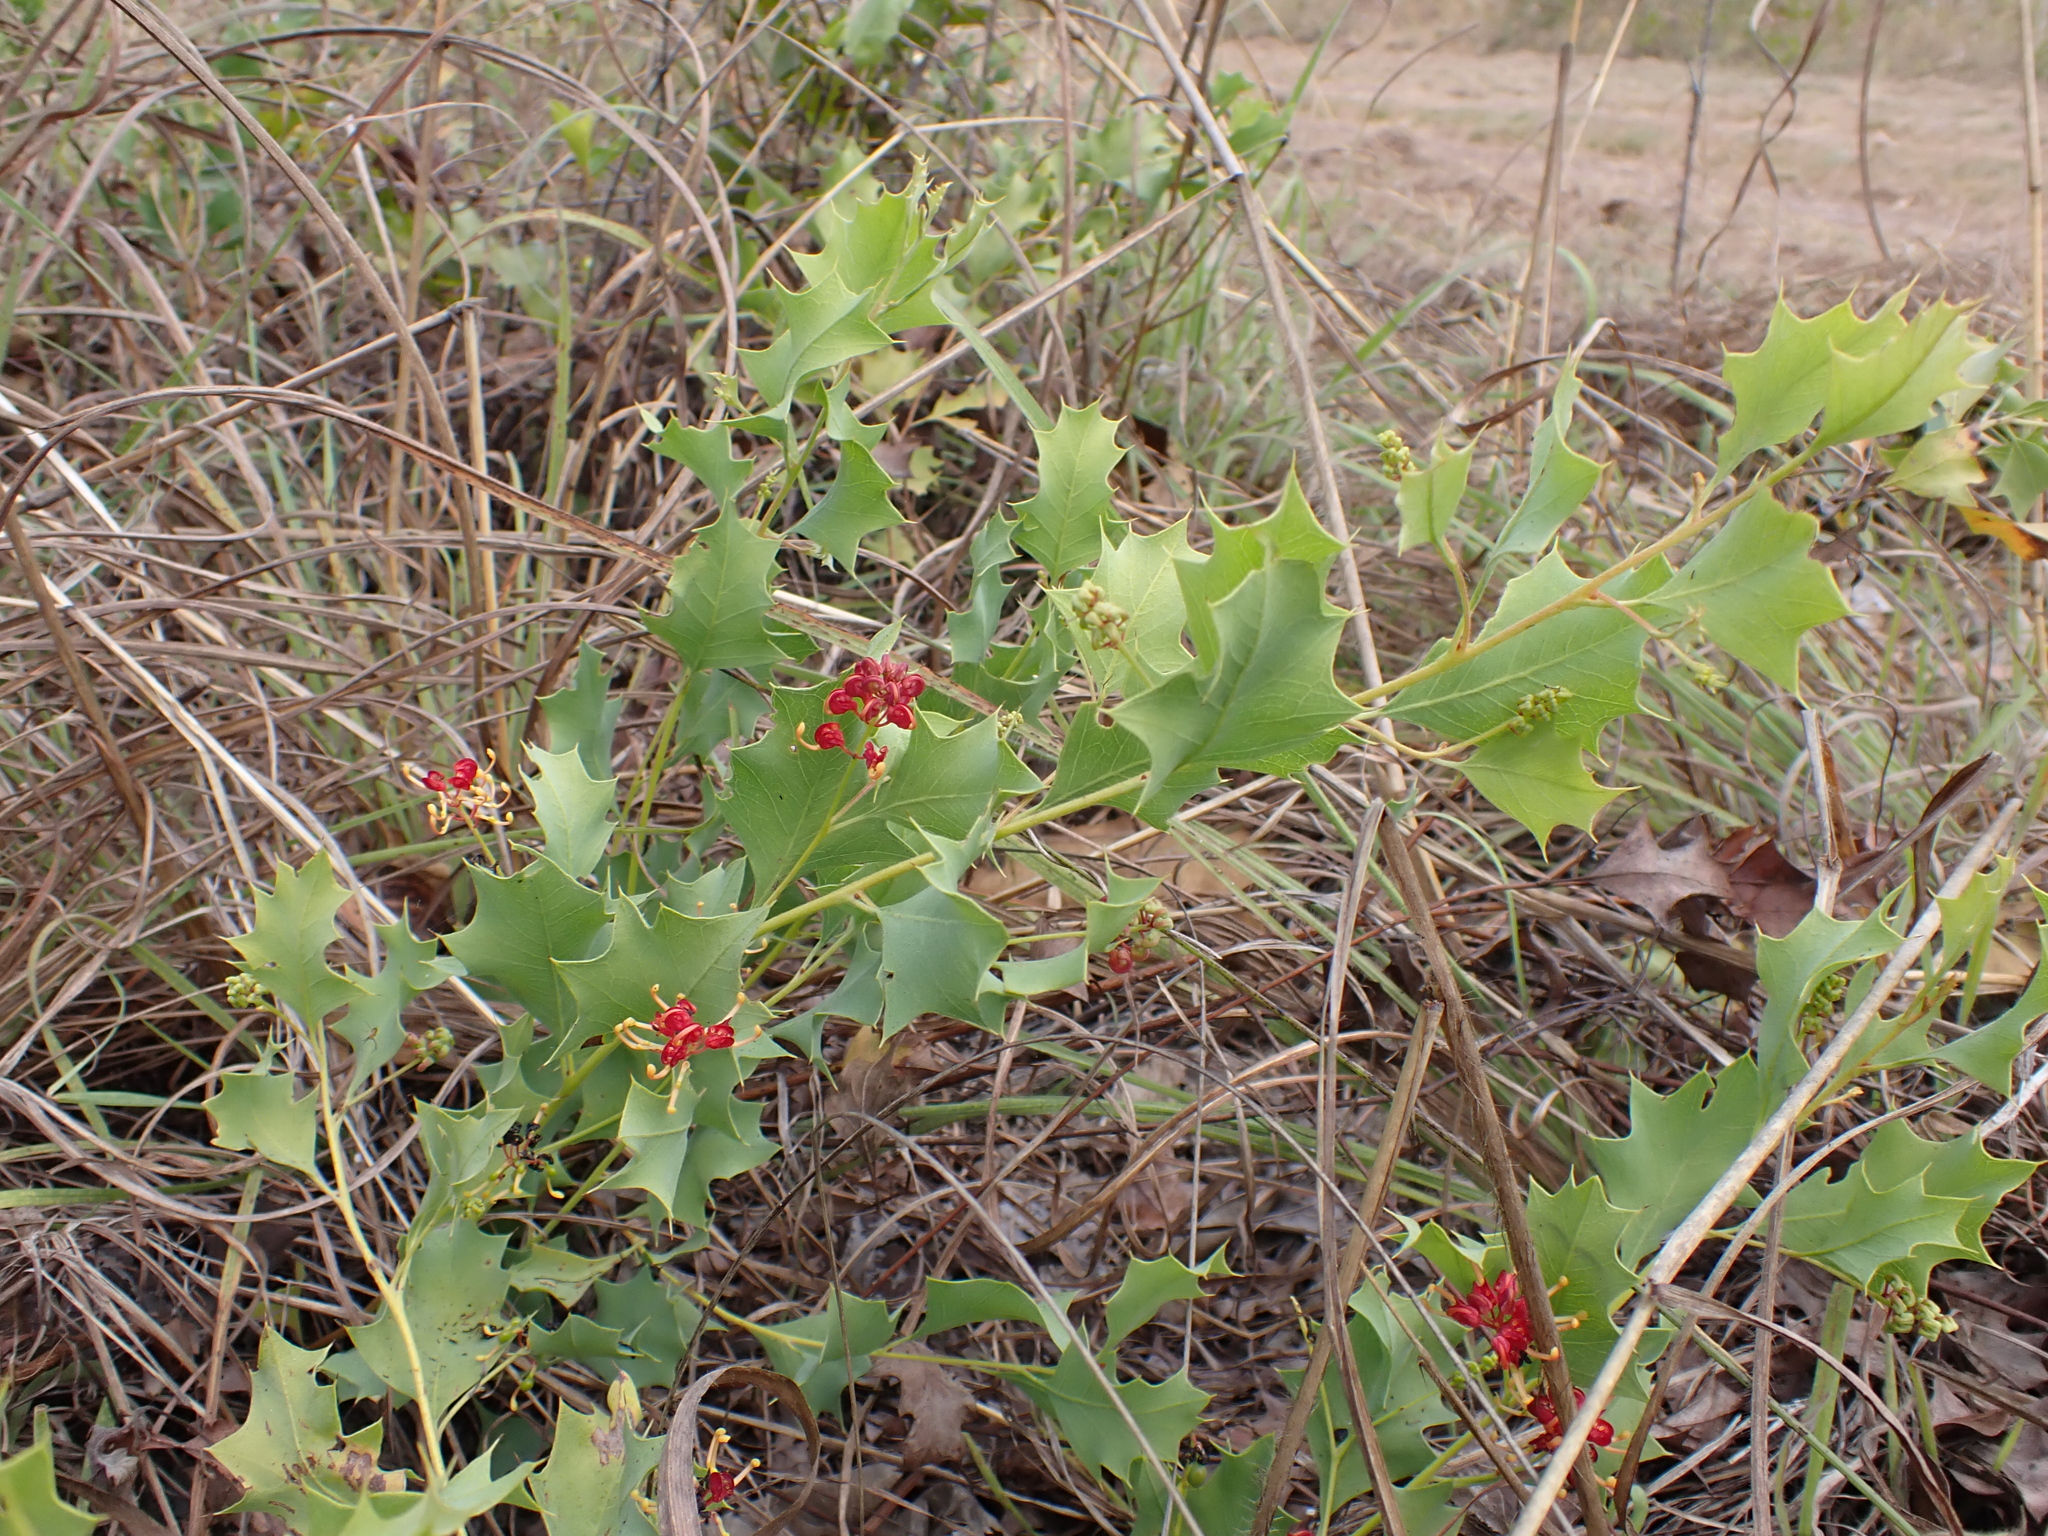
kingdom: Plantae
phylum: Tracheophyta
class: Magnoliopsida
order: Proteales
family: Proteaceae
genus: Grevillea
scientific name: Grevillea longicuspis
